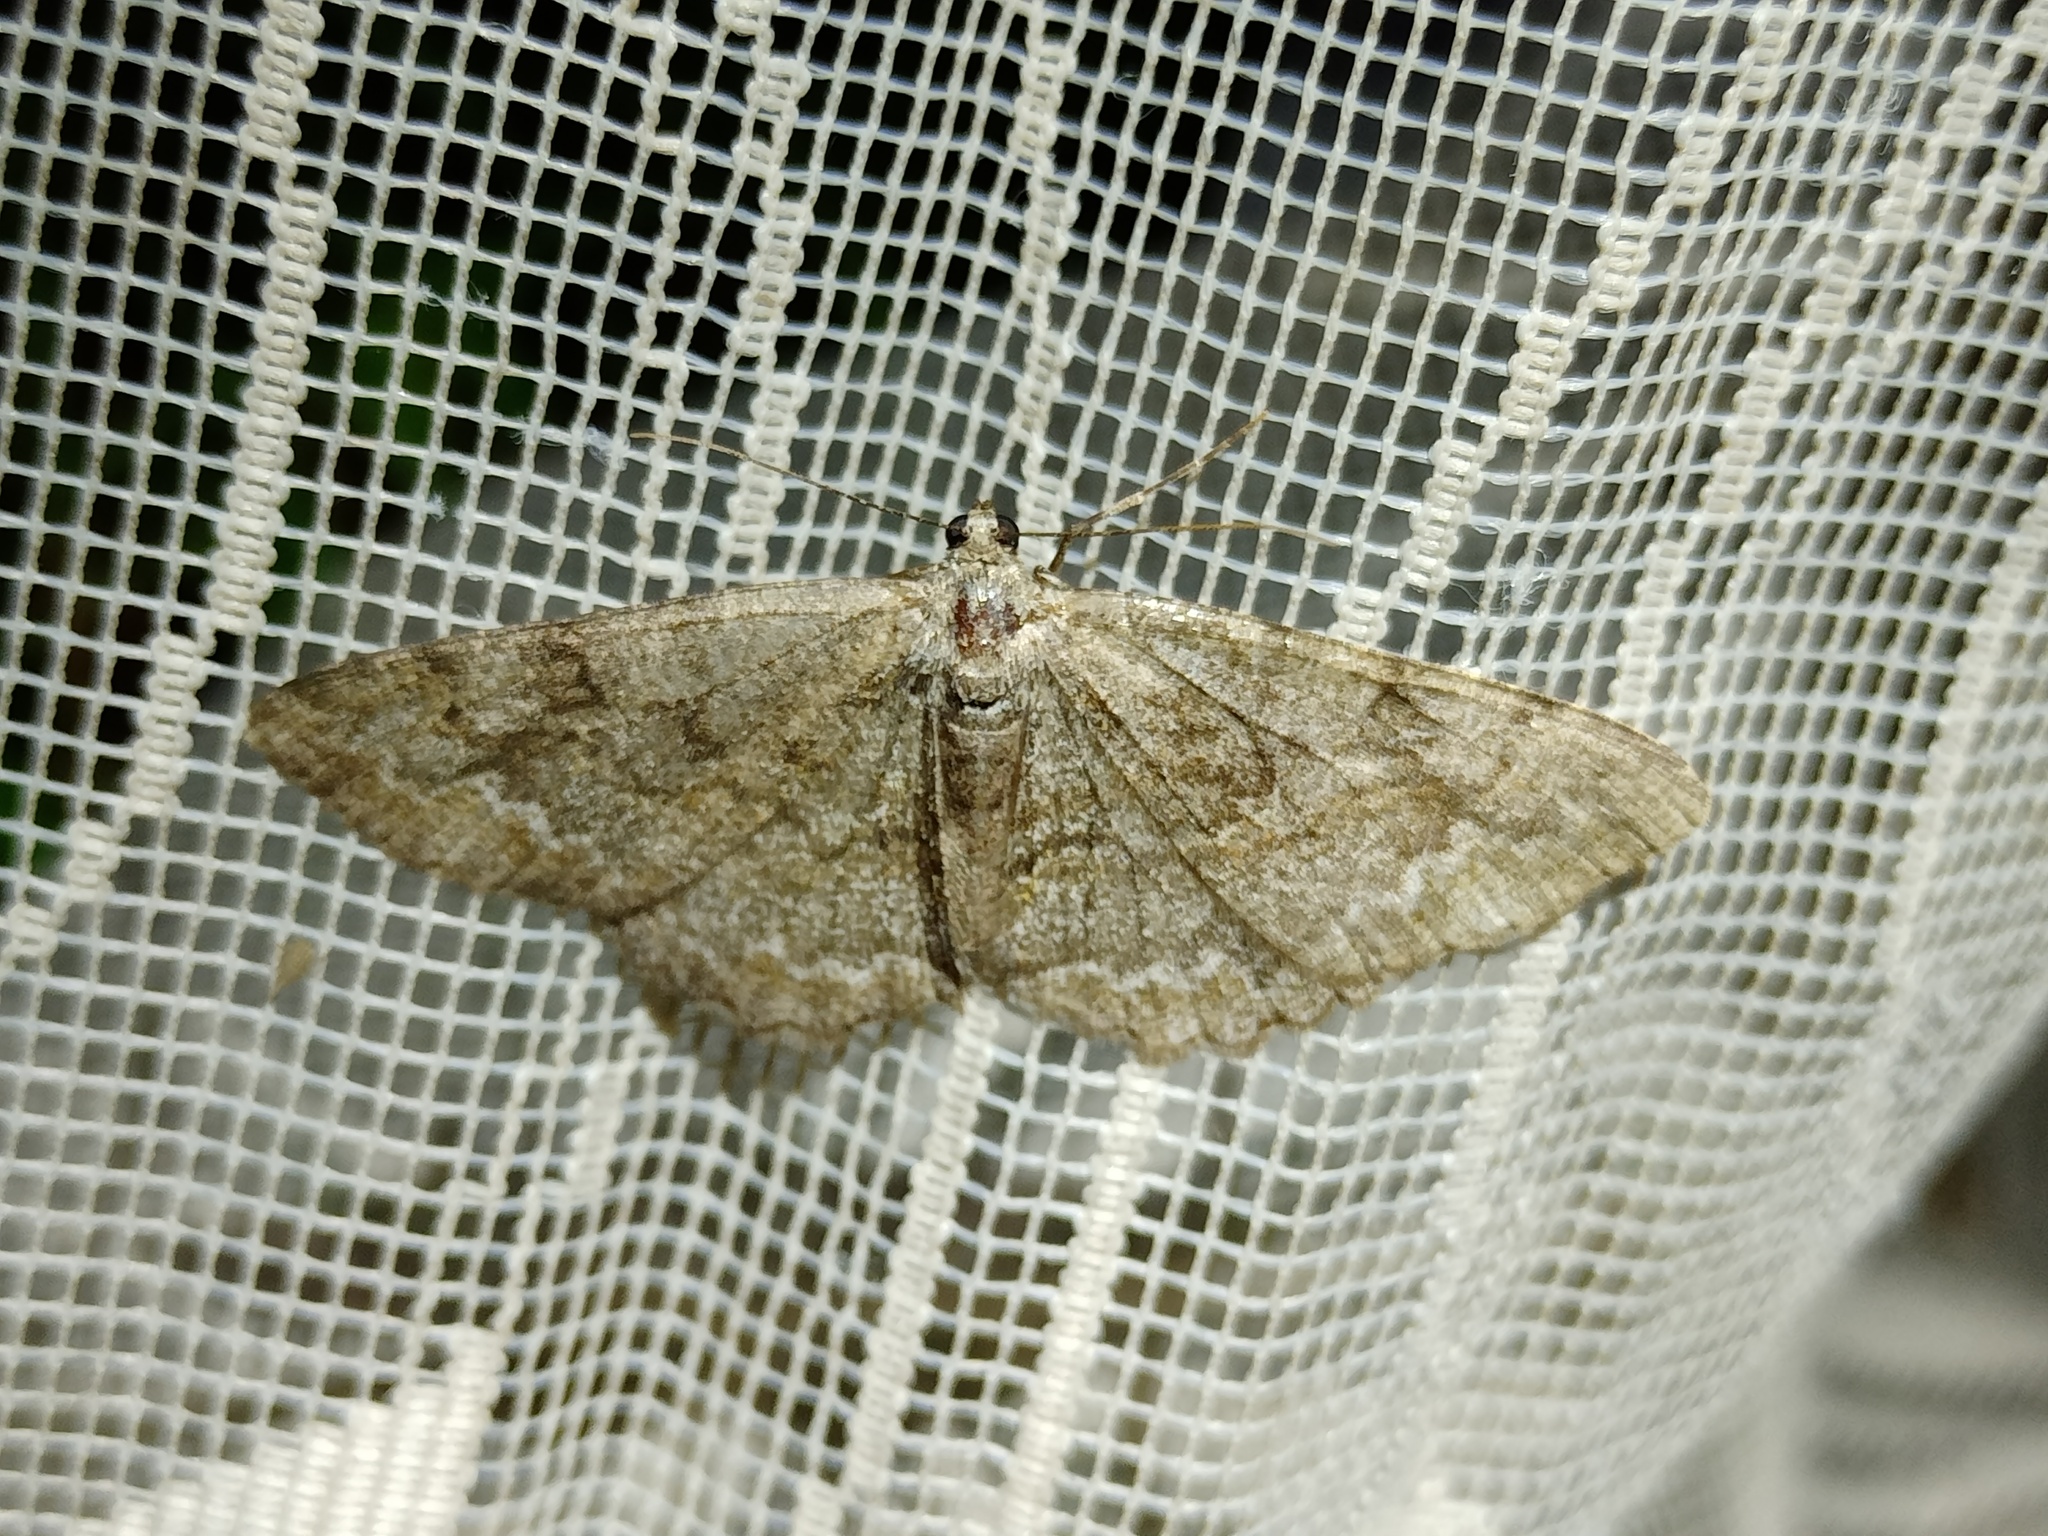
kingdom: Animalia
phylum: Arthropoda
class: Insecta
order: Lepidoptera
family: Geometridae
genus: Alcis
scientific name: Alcis repandata
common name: Mottled beauty
